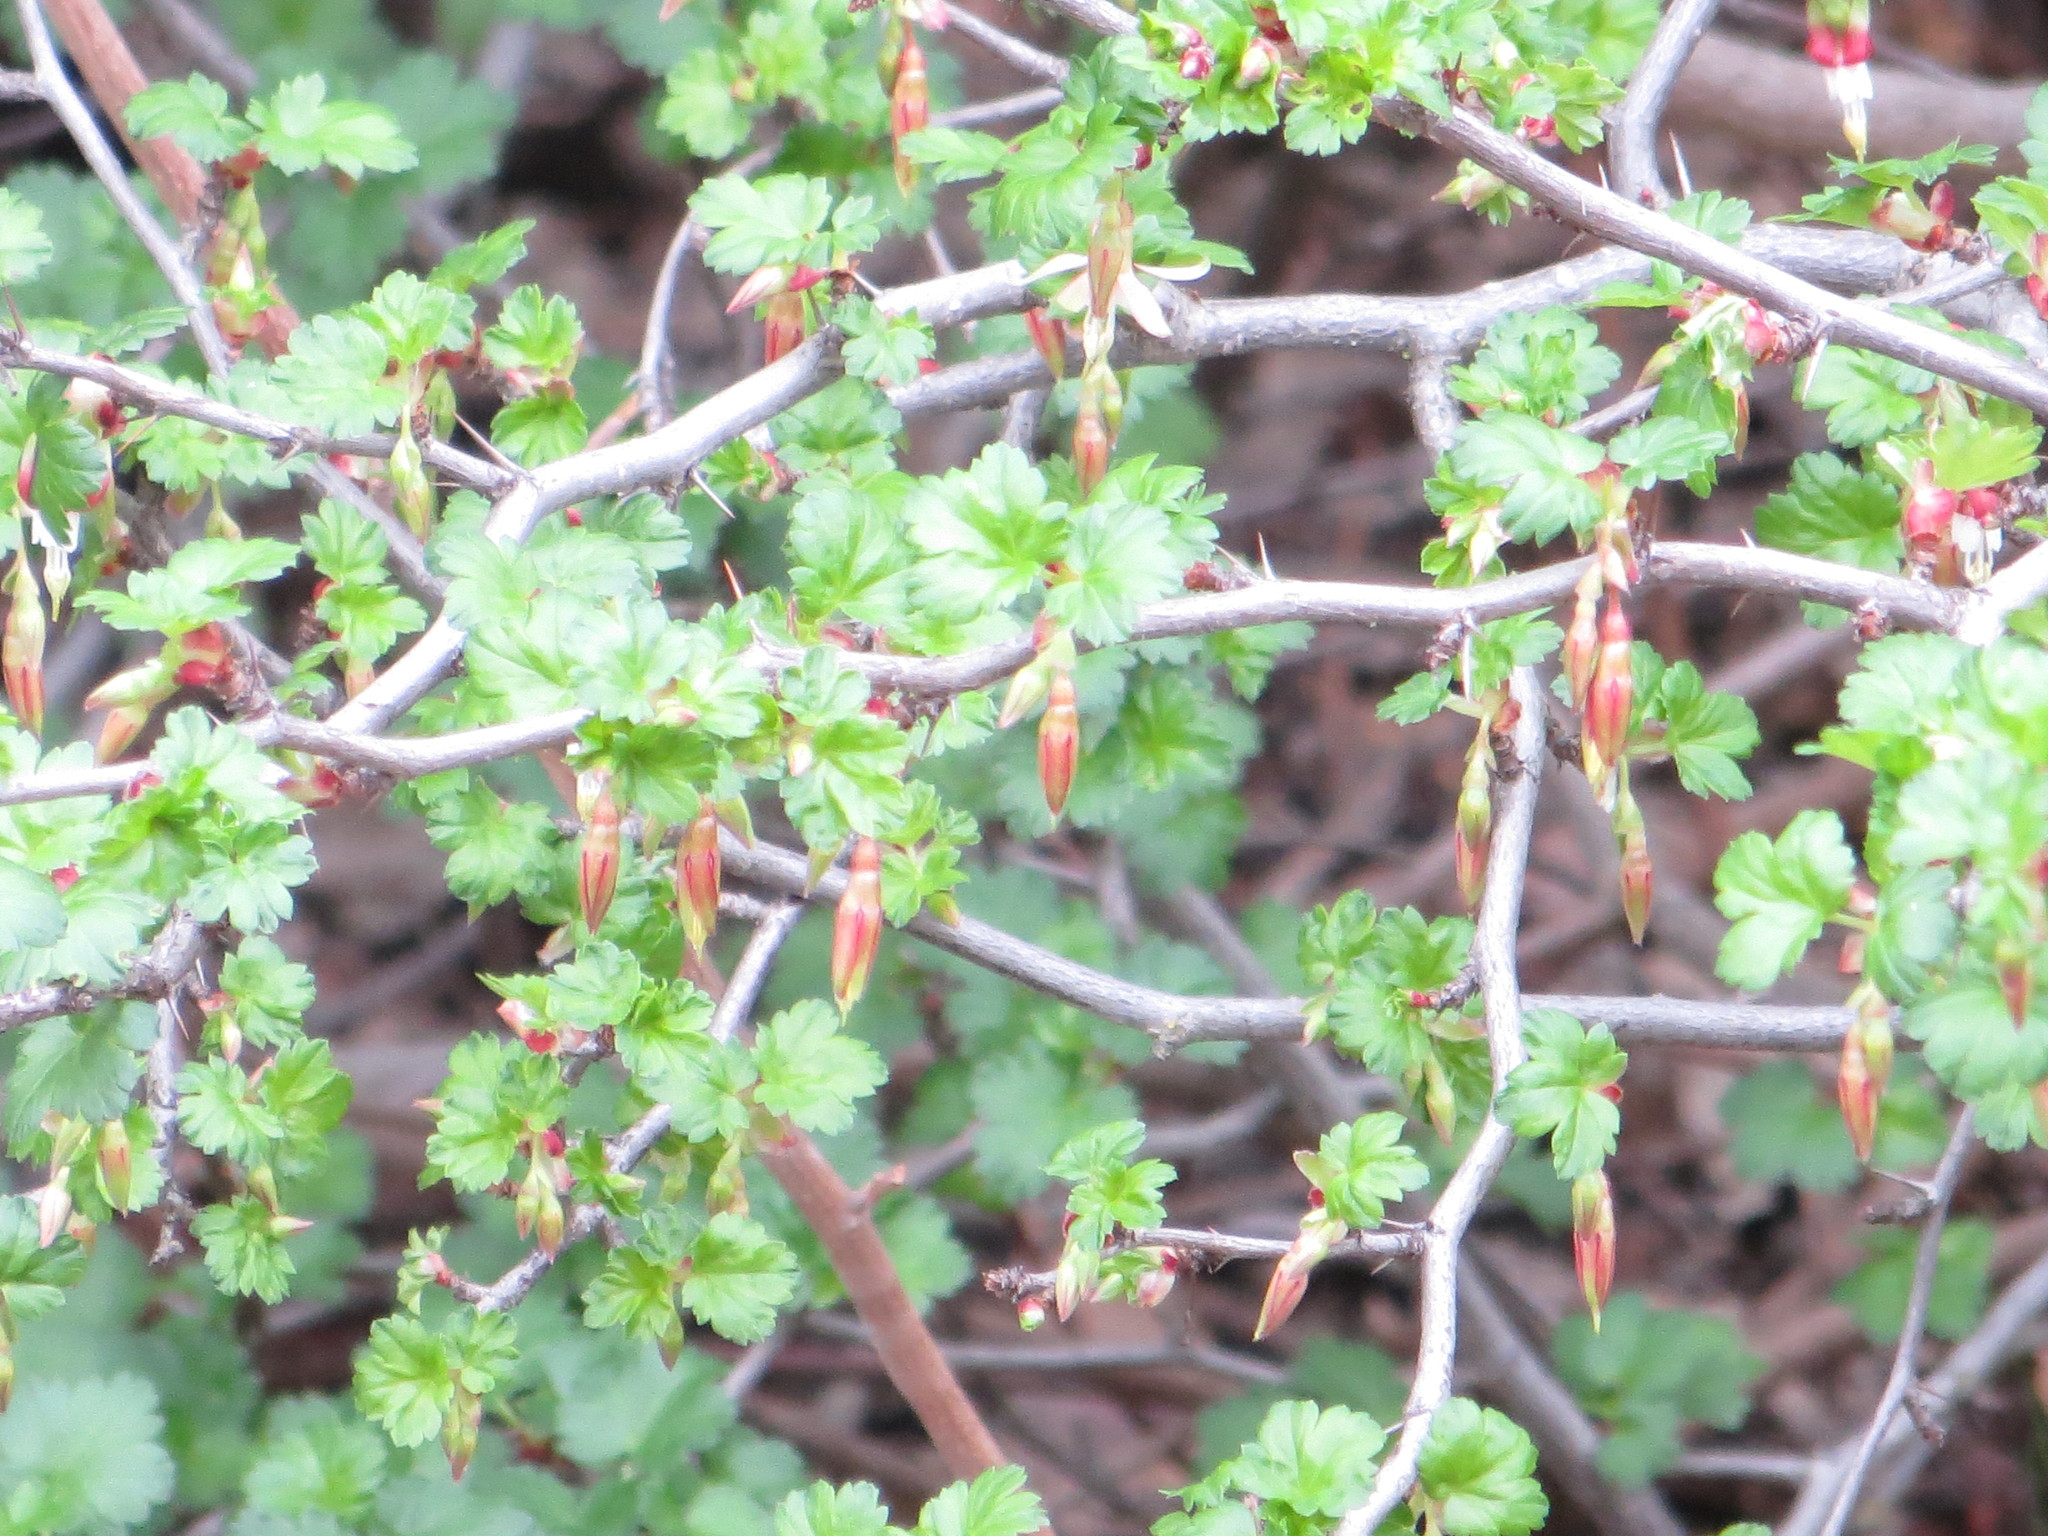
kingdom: Plantae
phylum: Tracheophyta
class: Magnoliopsida
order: Saxifragales
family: Grossulariaceae
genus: Ribes
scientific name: Ribes californicum
